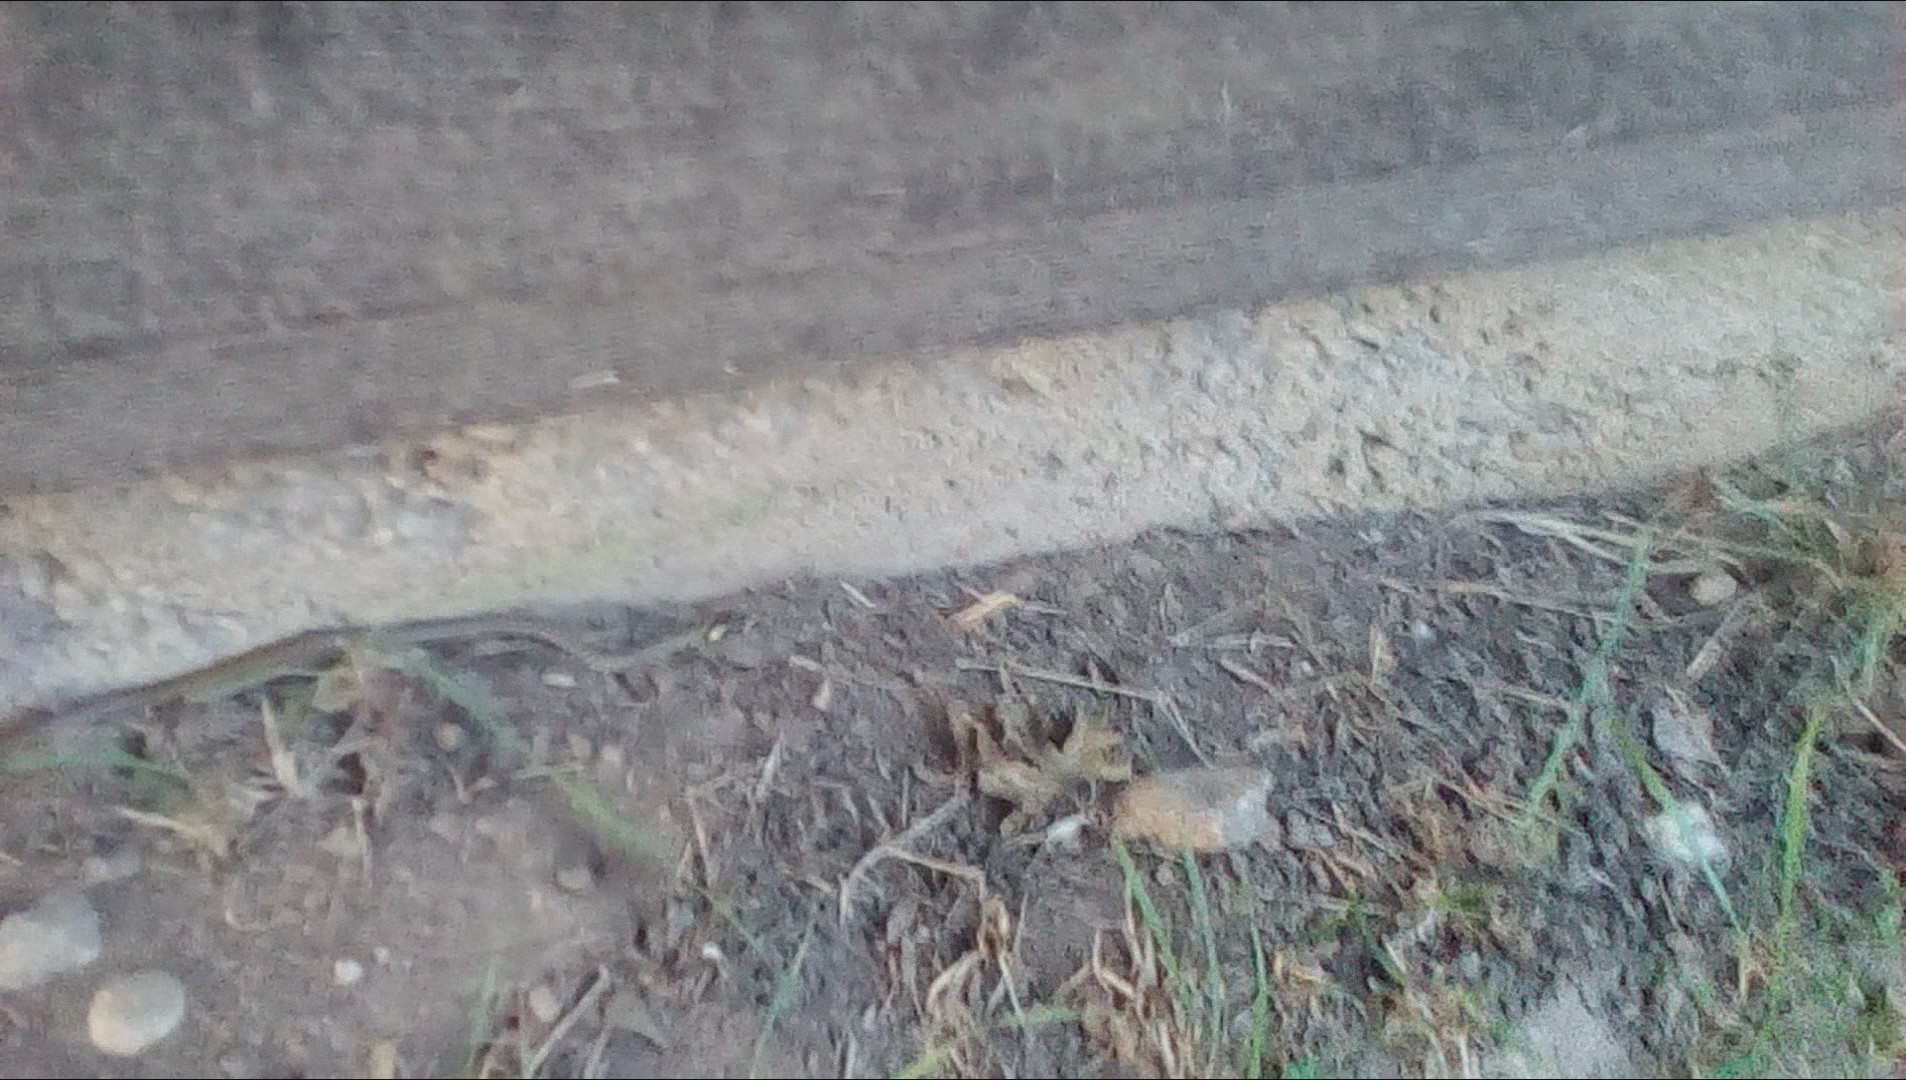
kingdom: Animalia
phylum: Chordata
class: Squamata
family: Colubridae
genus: Natrix
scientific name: Natrix natrix
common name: Grass snake
